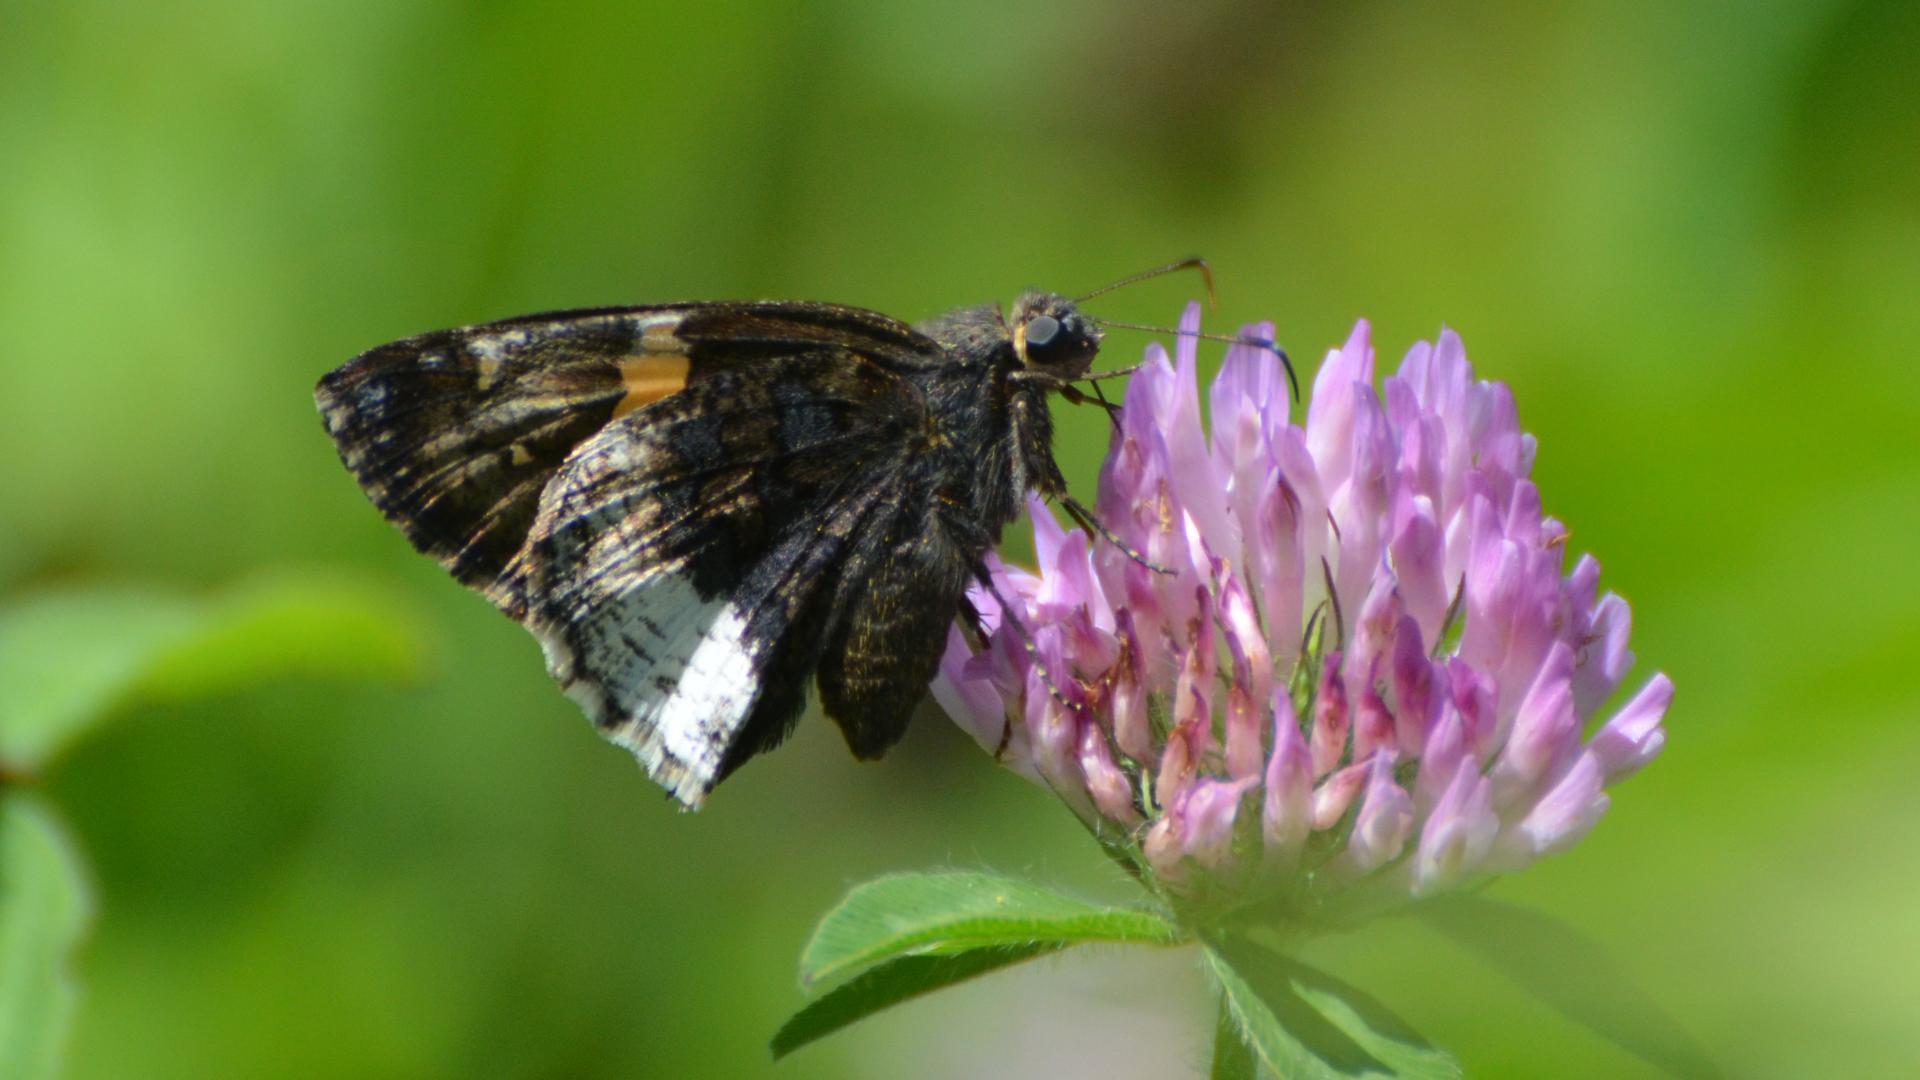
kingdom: Animalia
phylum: Arthropoda
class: Insecta
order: Lepidoptera
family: Hesperiidae
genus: Thorybes
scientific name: Thorybes lyciades
